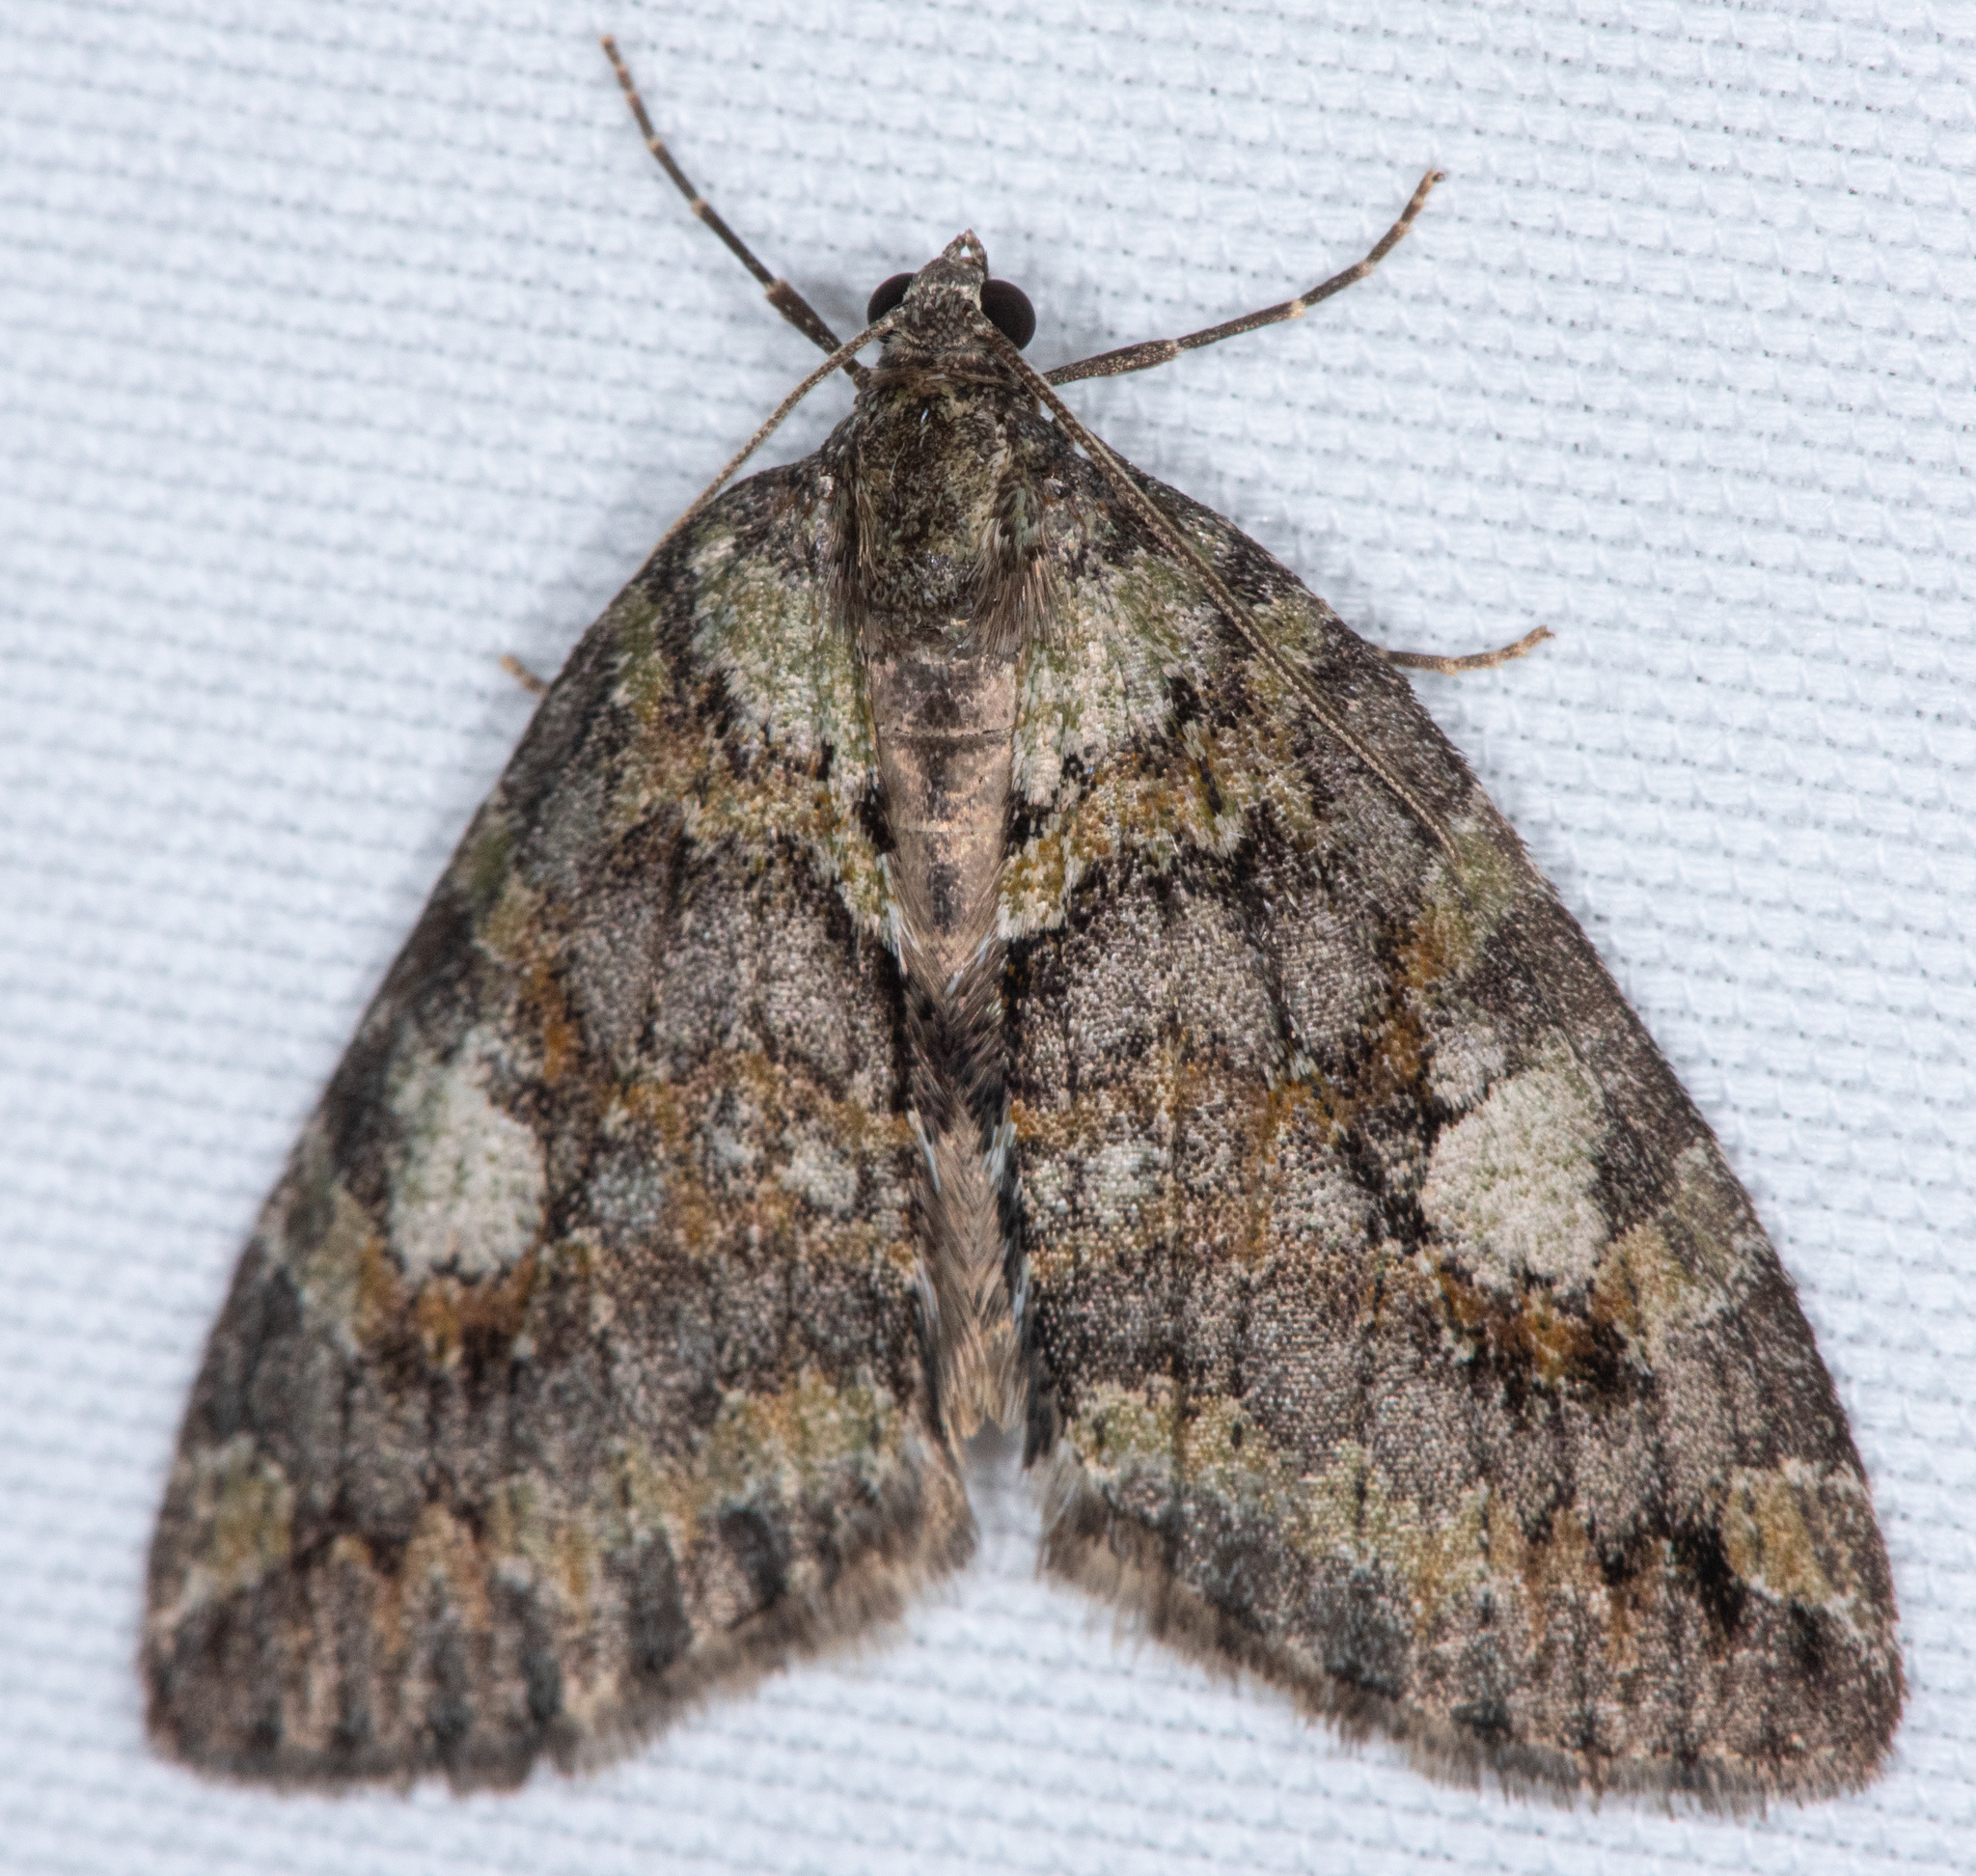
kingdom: Animalia
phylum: Arthropoda
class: Insecta
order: Lepidoptera
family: Geometridae
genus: Hydriomena
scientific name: Hydriomena nubilofasciata
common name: Oak winter highflier moth
